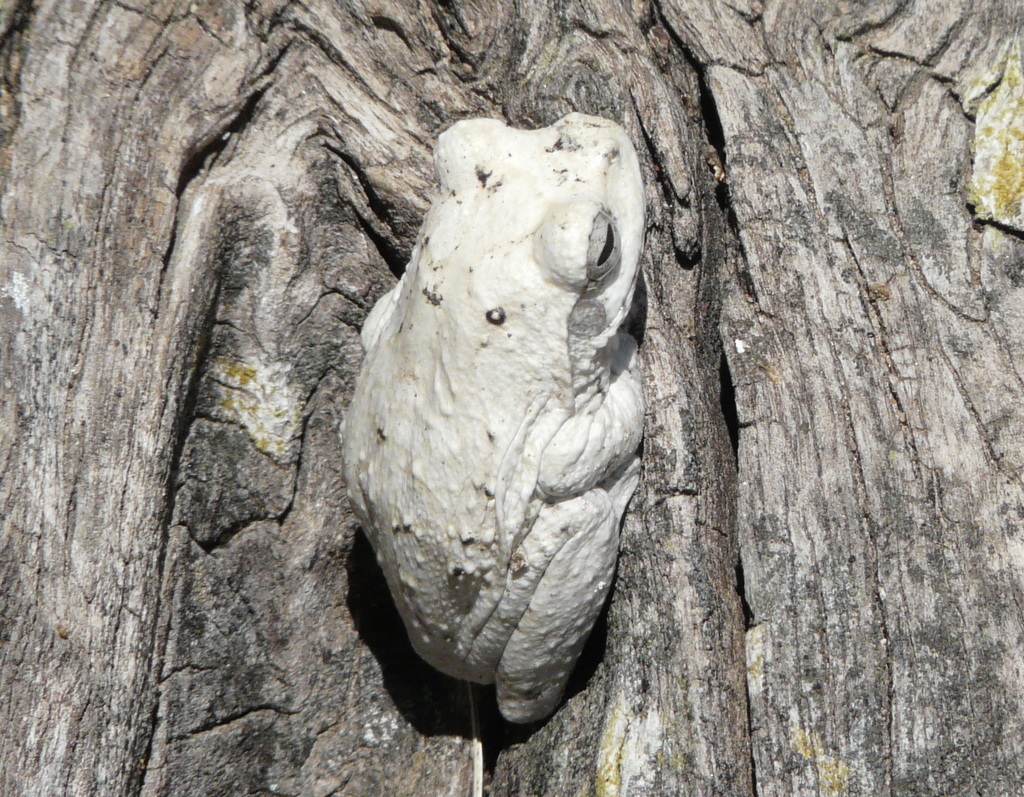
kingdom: Animalia
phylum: Chordata
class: Amphibia
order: Anura
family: Rhacophoridae
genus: Chiromantis
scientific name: Chiromantis xerampelina
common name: African gray treefrog
